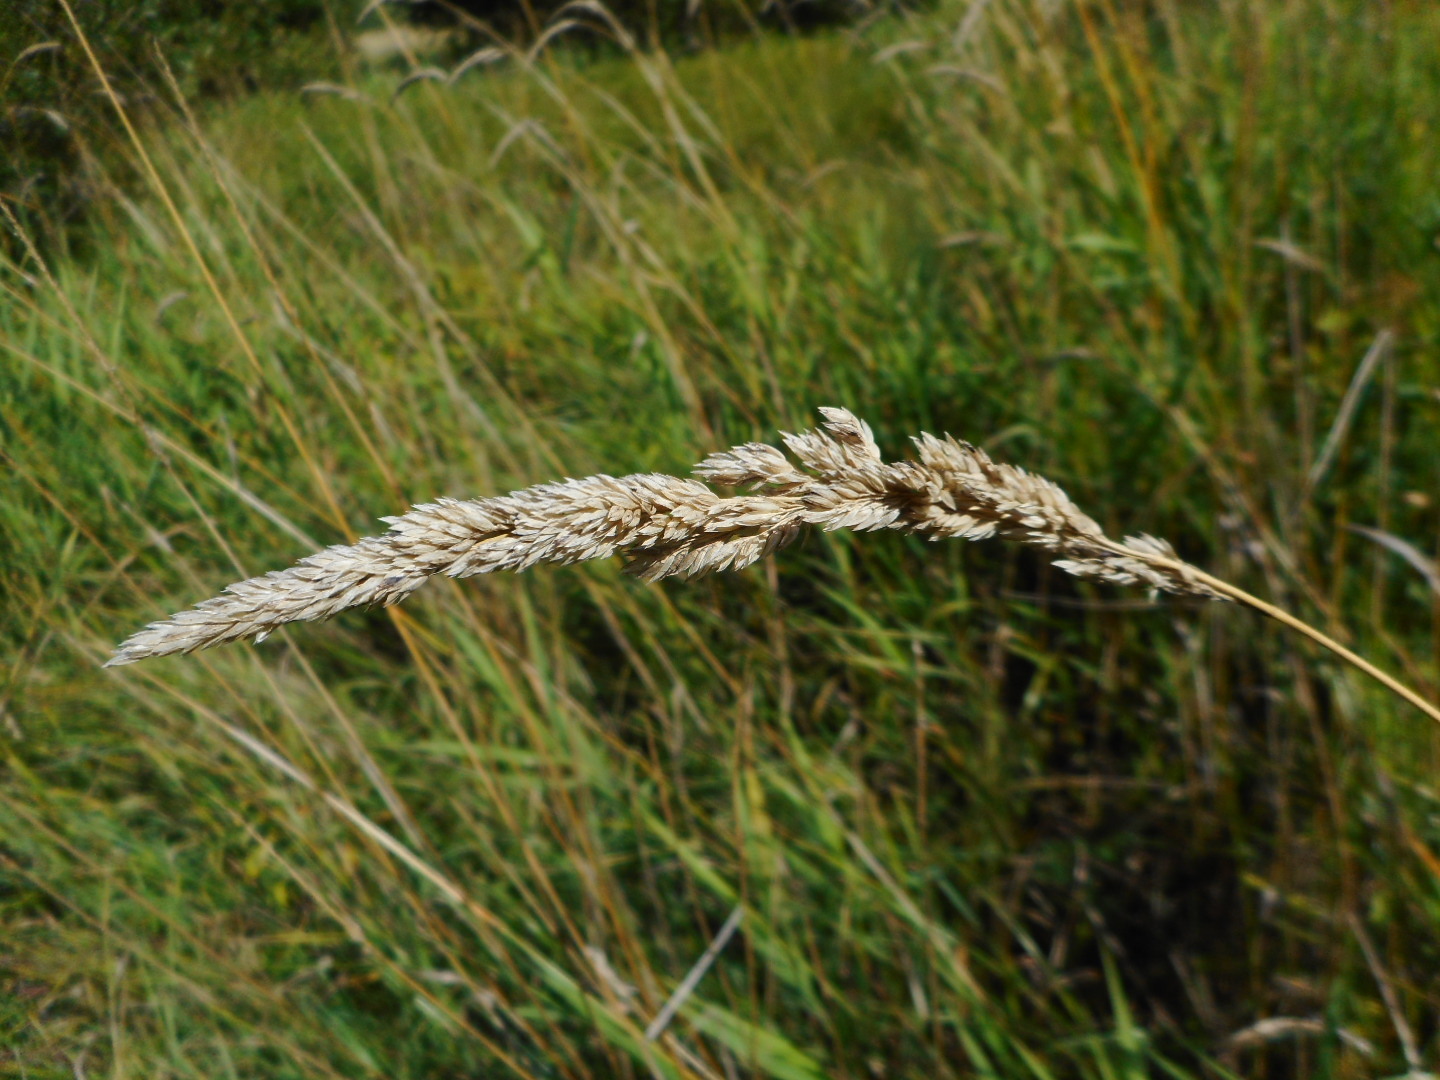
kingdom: Plantae
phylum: Tracheophyta
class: Liliopsida
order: Poales
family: Poaceae
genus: Phalaris
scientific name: Phalaris arundinacea
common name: Reed canary-grass
